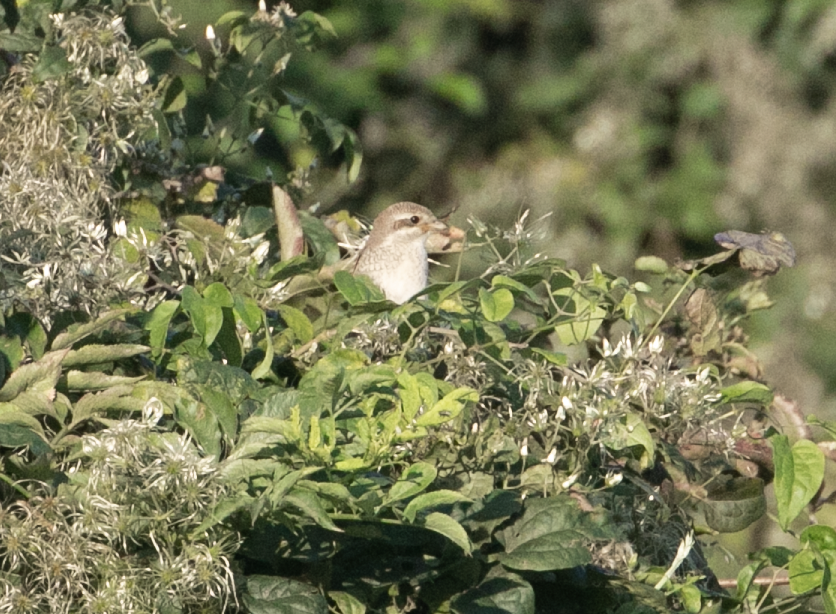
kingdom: Animalia
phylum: Chordata
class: Aves
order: Passeriformes
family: Laniidae
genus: Lanius
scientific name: Lanius collurio
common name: Red-backed shrike
